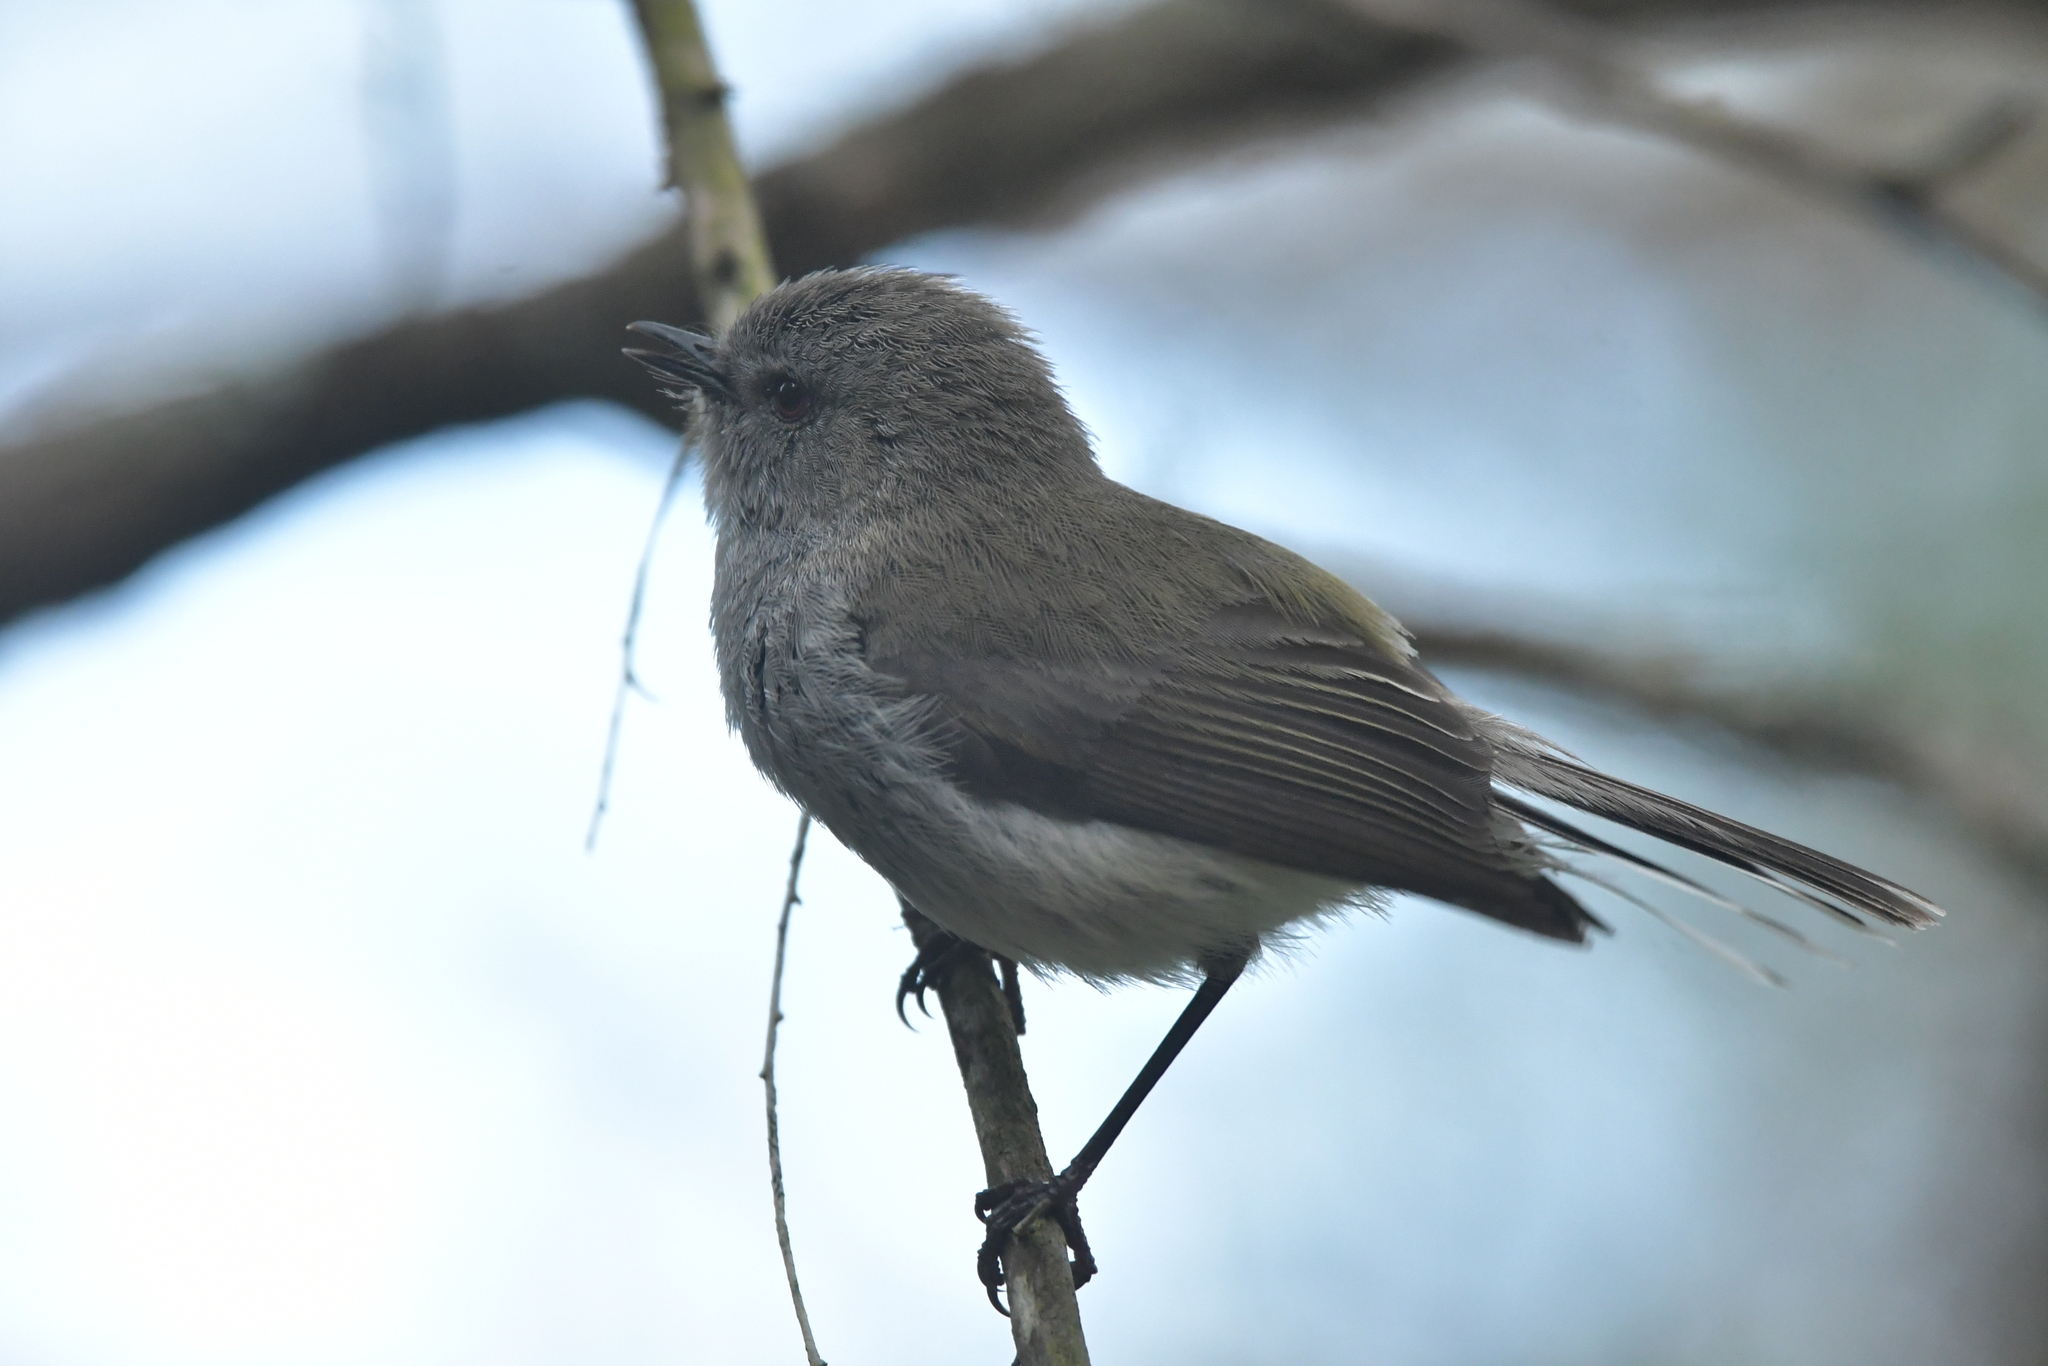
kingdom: Animalia
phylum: Chordata
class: Aves
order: Passeriformes
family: Acanthizidae
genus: Gerygone
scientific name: Gerygone igata
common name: Grey gerygone
